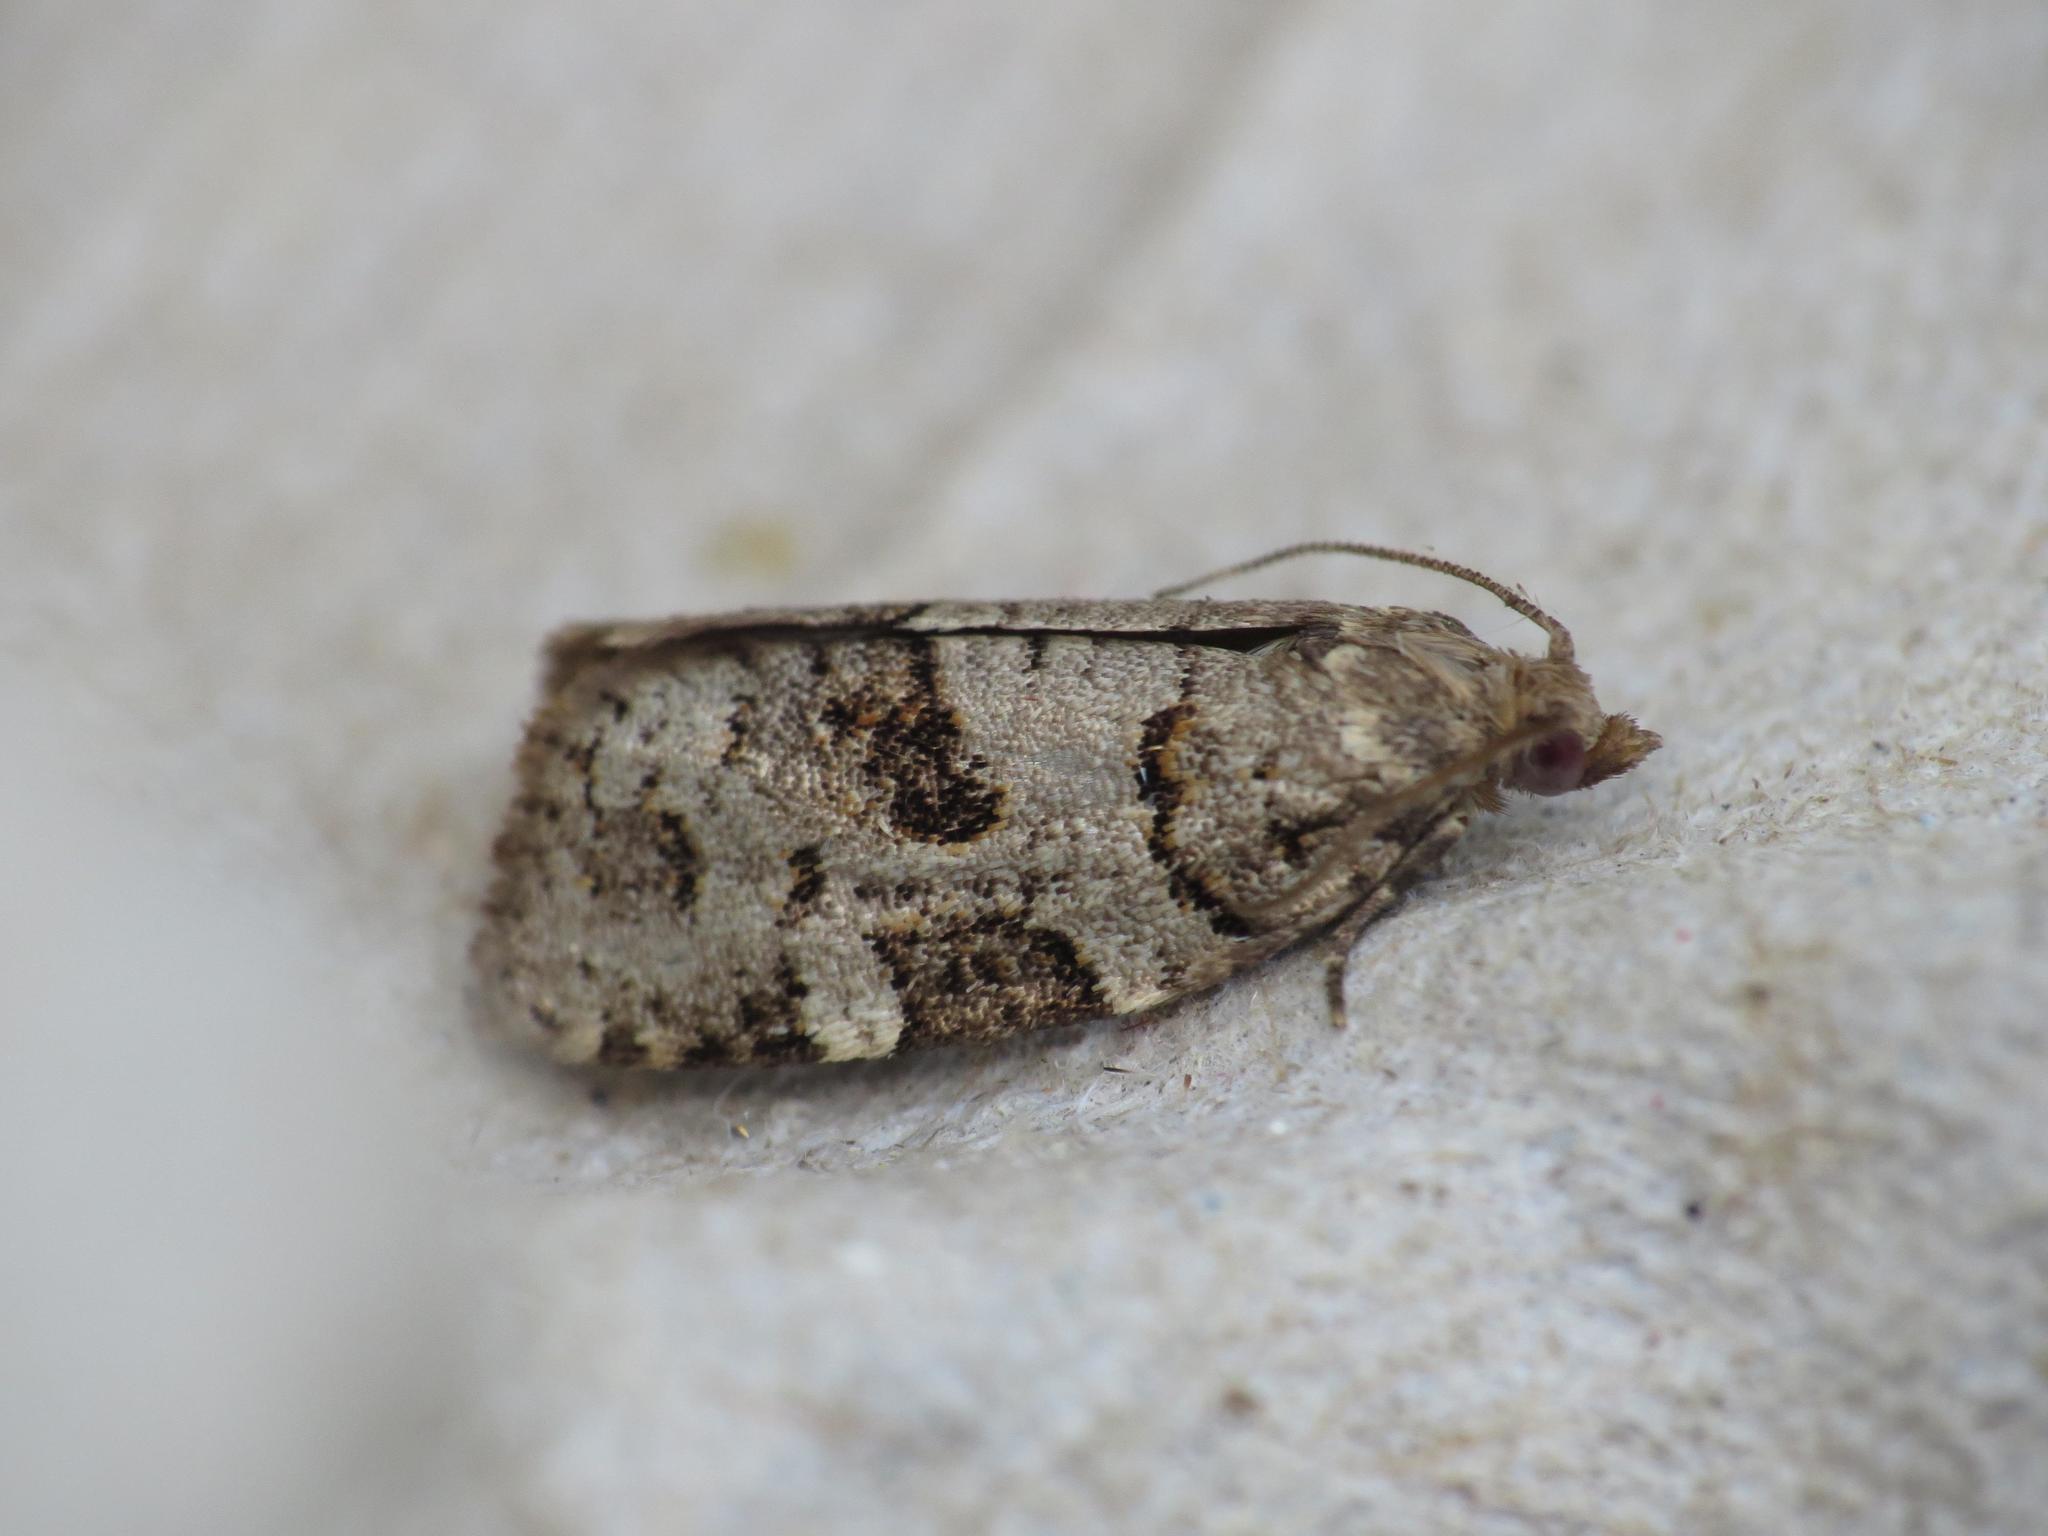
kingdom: Animalia
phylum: Arthropoda
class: Insecta
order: Lepidoptera
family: Tortricidae
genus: Dichelia
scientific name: Dichelia histrionana
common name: Tortricid moth
